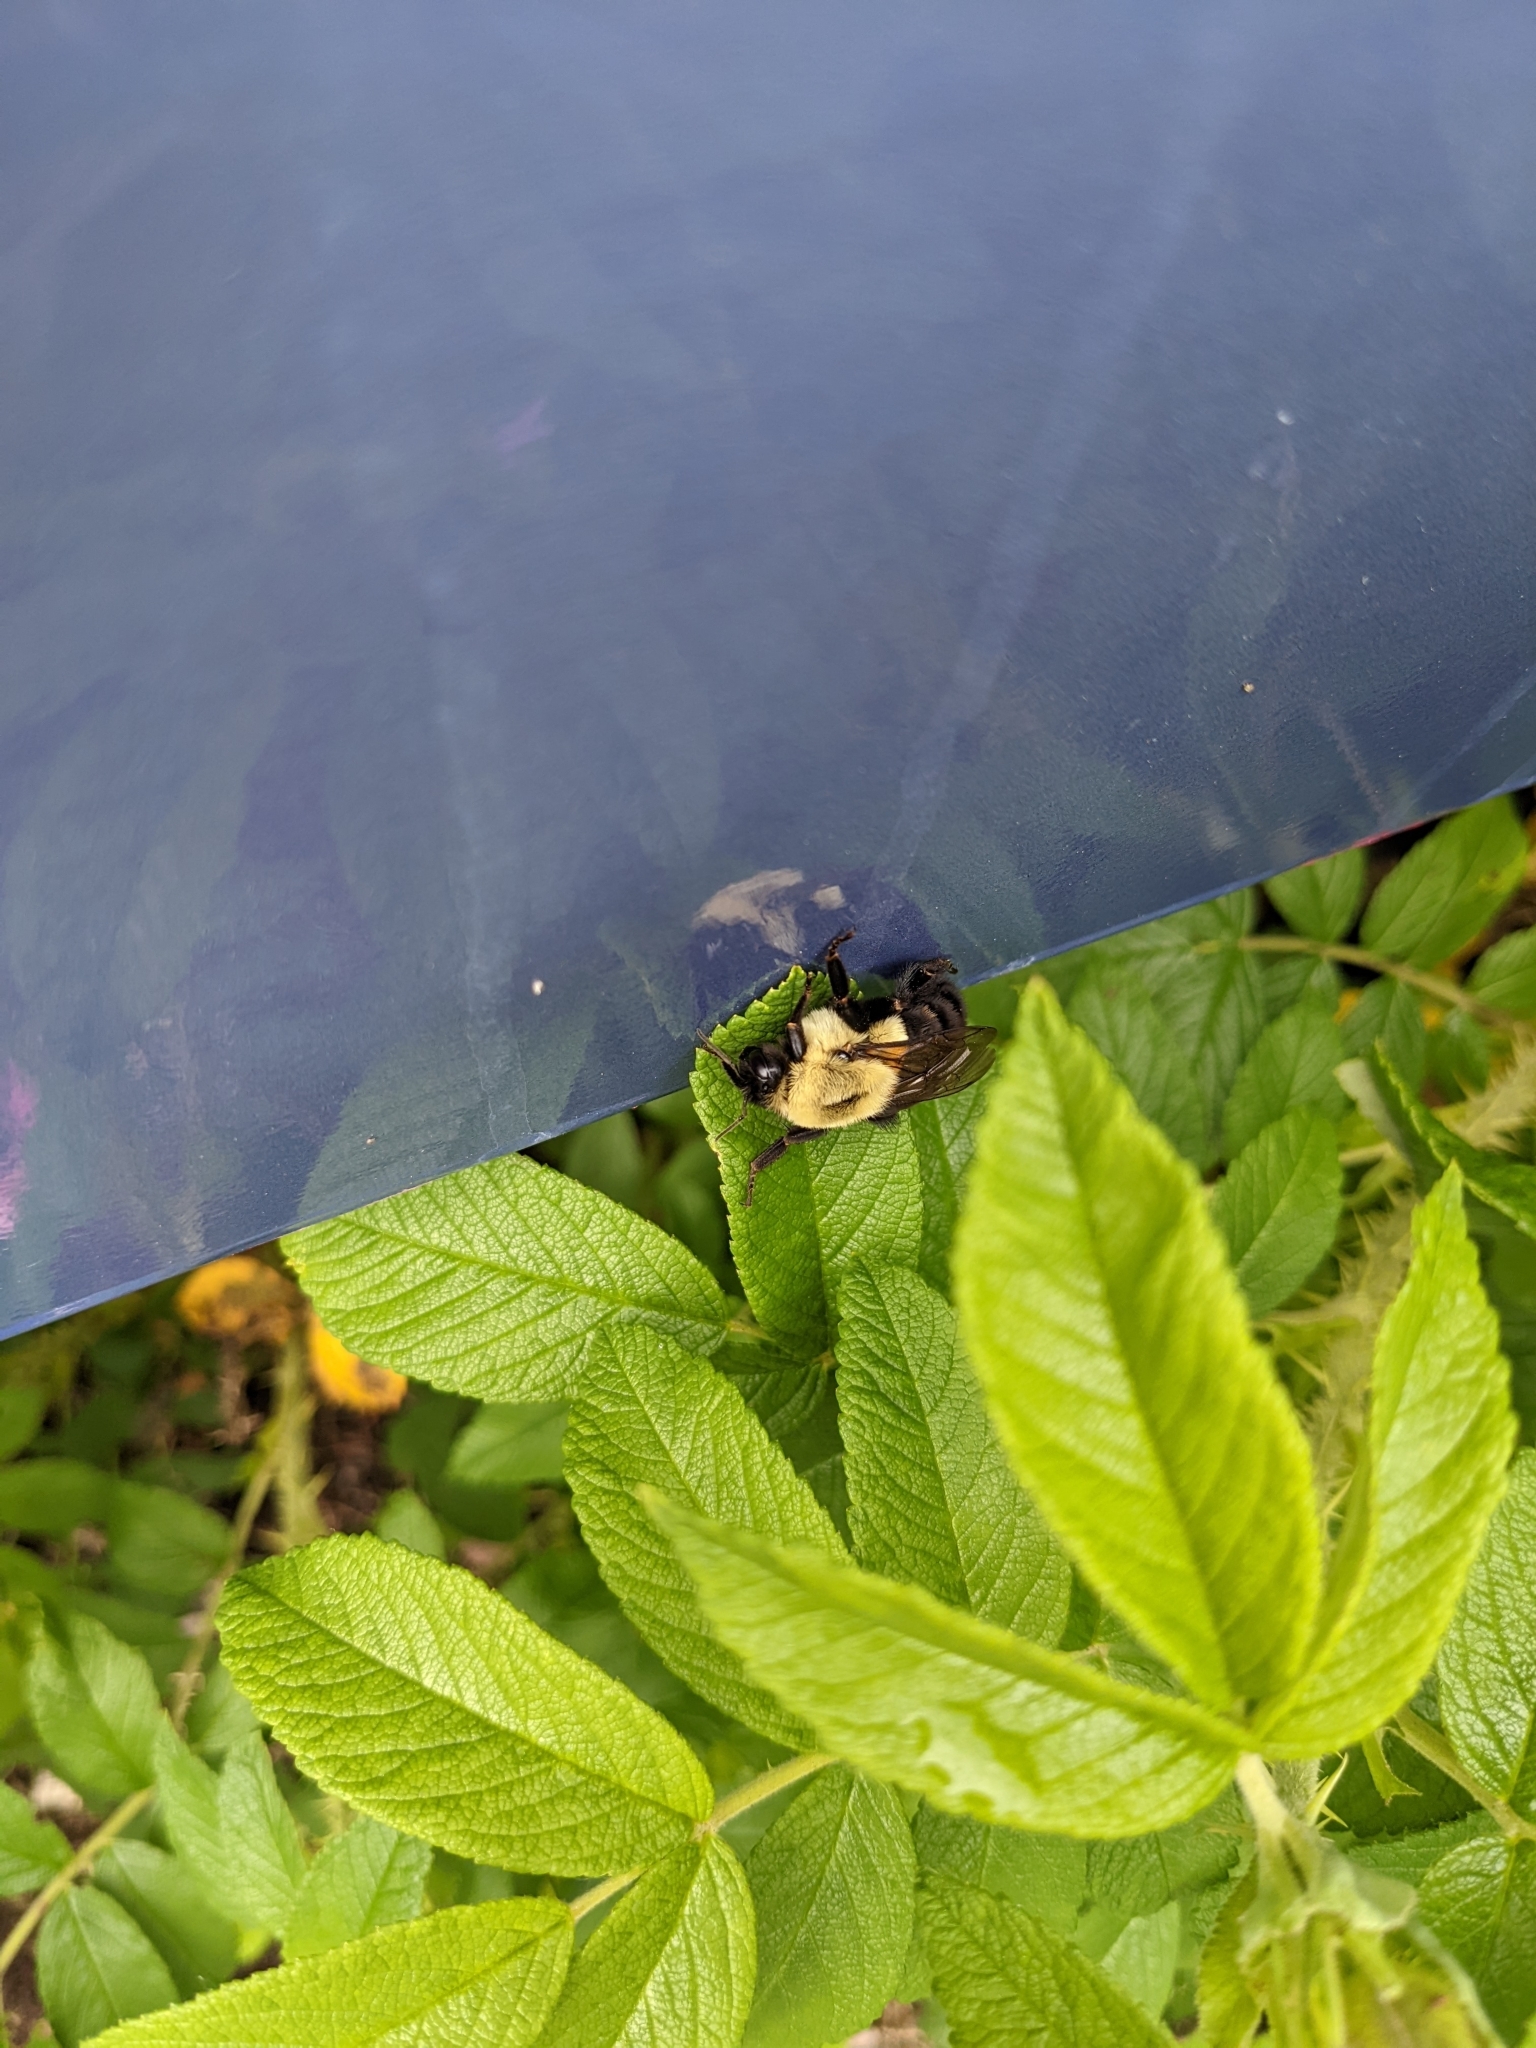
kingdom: Animalia
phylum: Arthropoda
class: Insecta
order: Hymenoptera
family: Apidae
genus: Bombus
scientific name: Bombus impatiens
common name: Common eastern bumble bee
